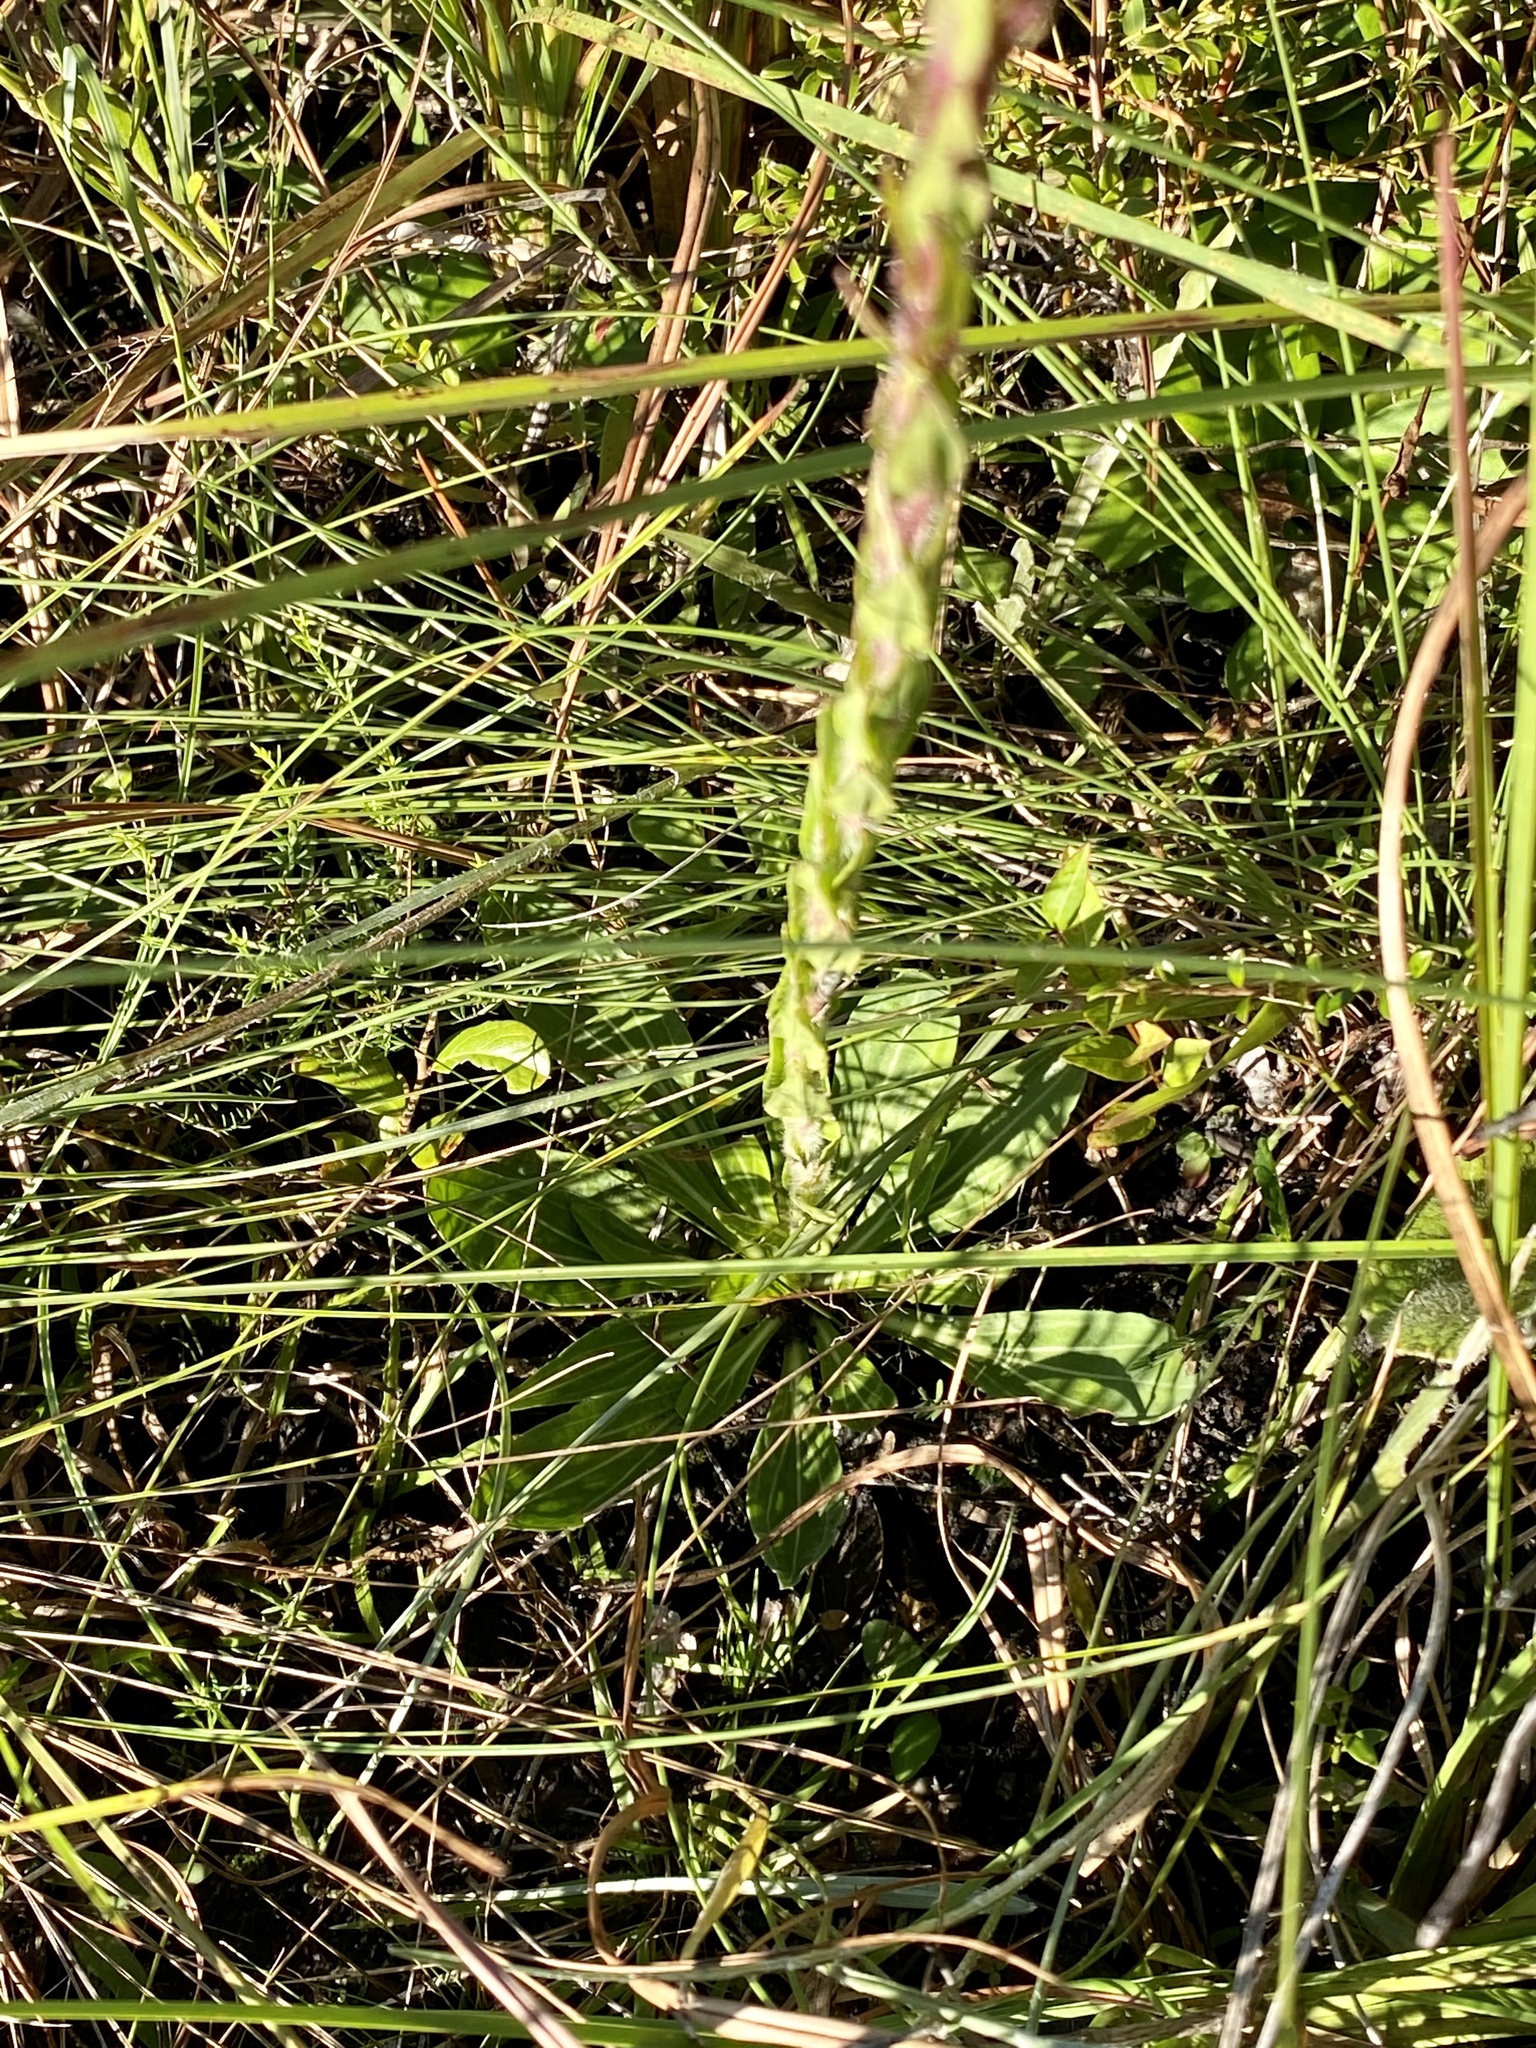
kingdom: Plantae
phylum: Tracheophyta
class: Magnoliopsida
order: Asterales
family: Asteraceae
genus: Carphephorus
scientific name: Carphephorus paniculatus
